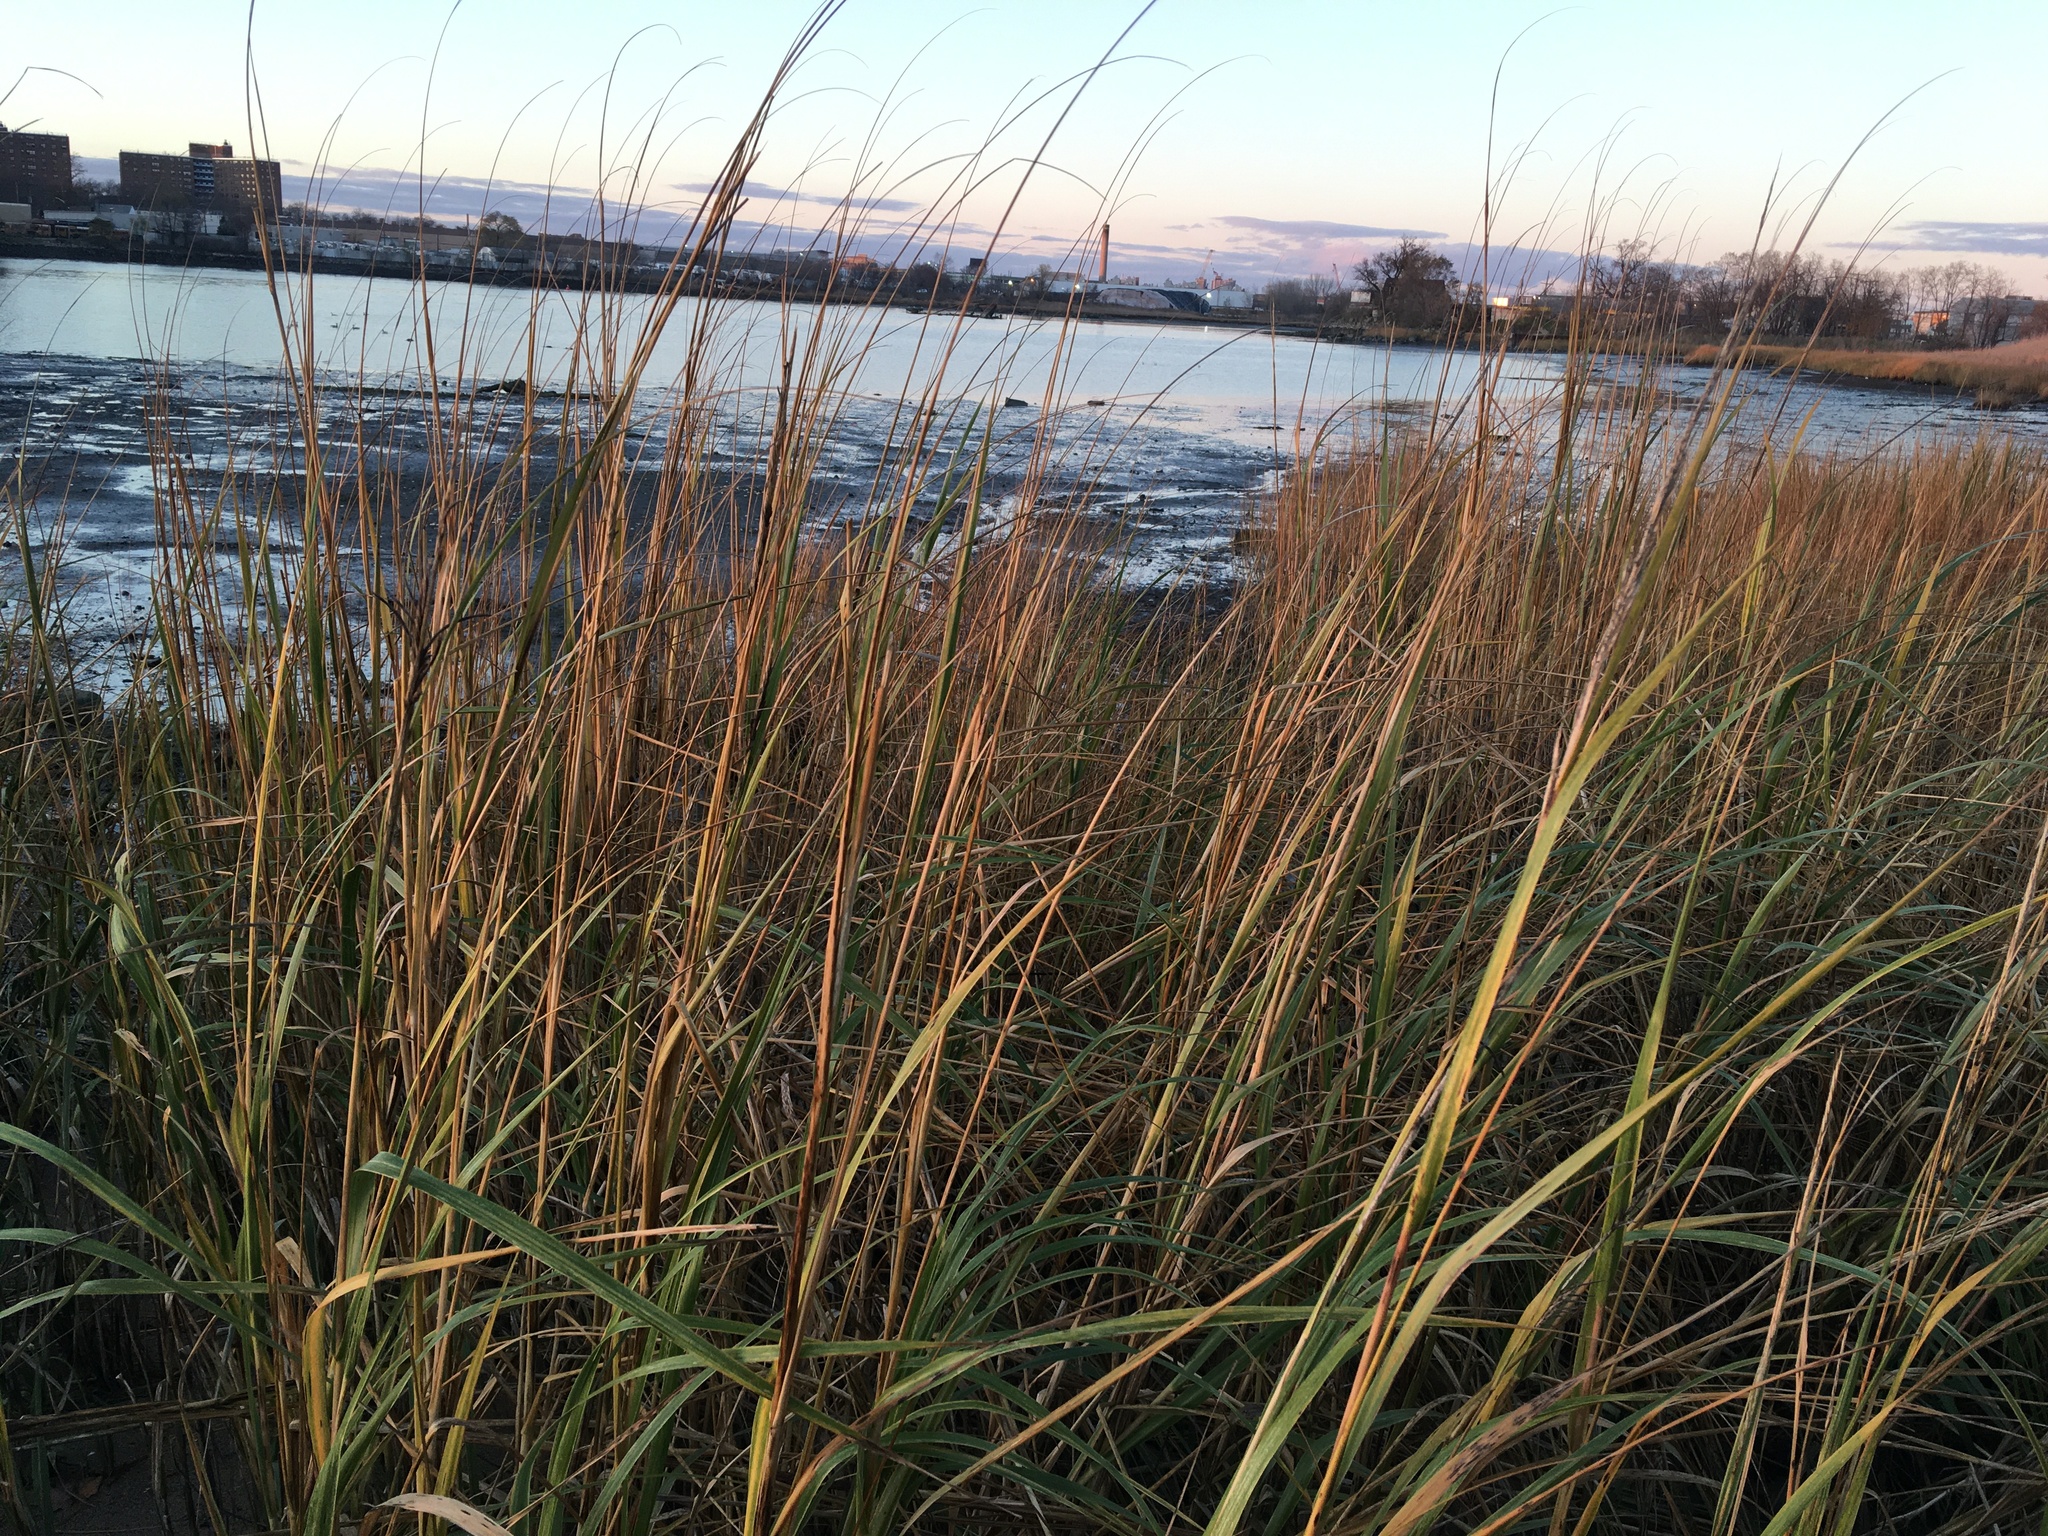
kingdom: Plantae
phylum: Tracheophyta
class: Liliopsida
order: Poales
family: Poaceae
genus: Sporobolus
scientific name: Sporobolus alterniflorus
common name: Atlantic cordgrass
